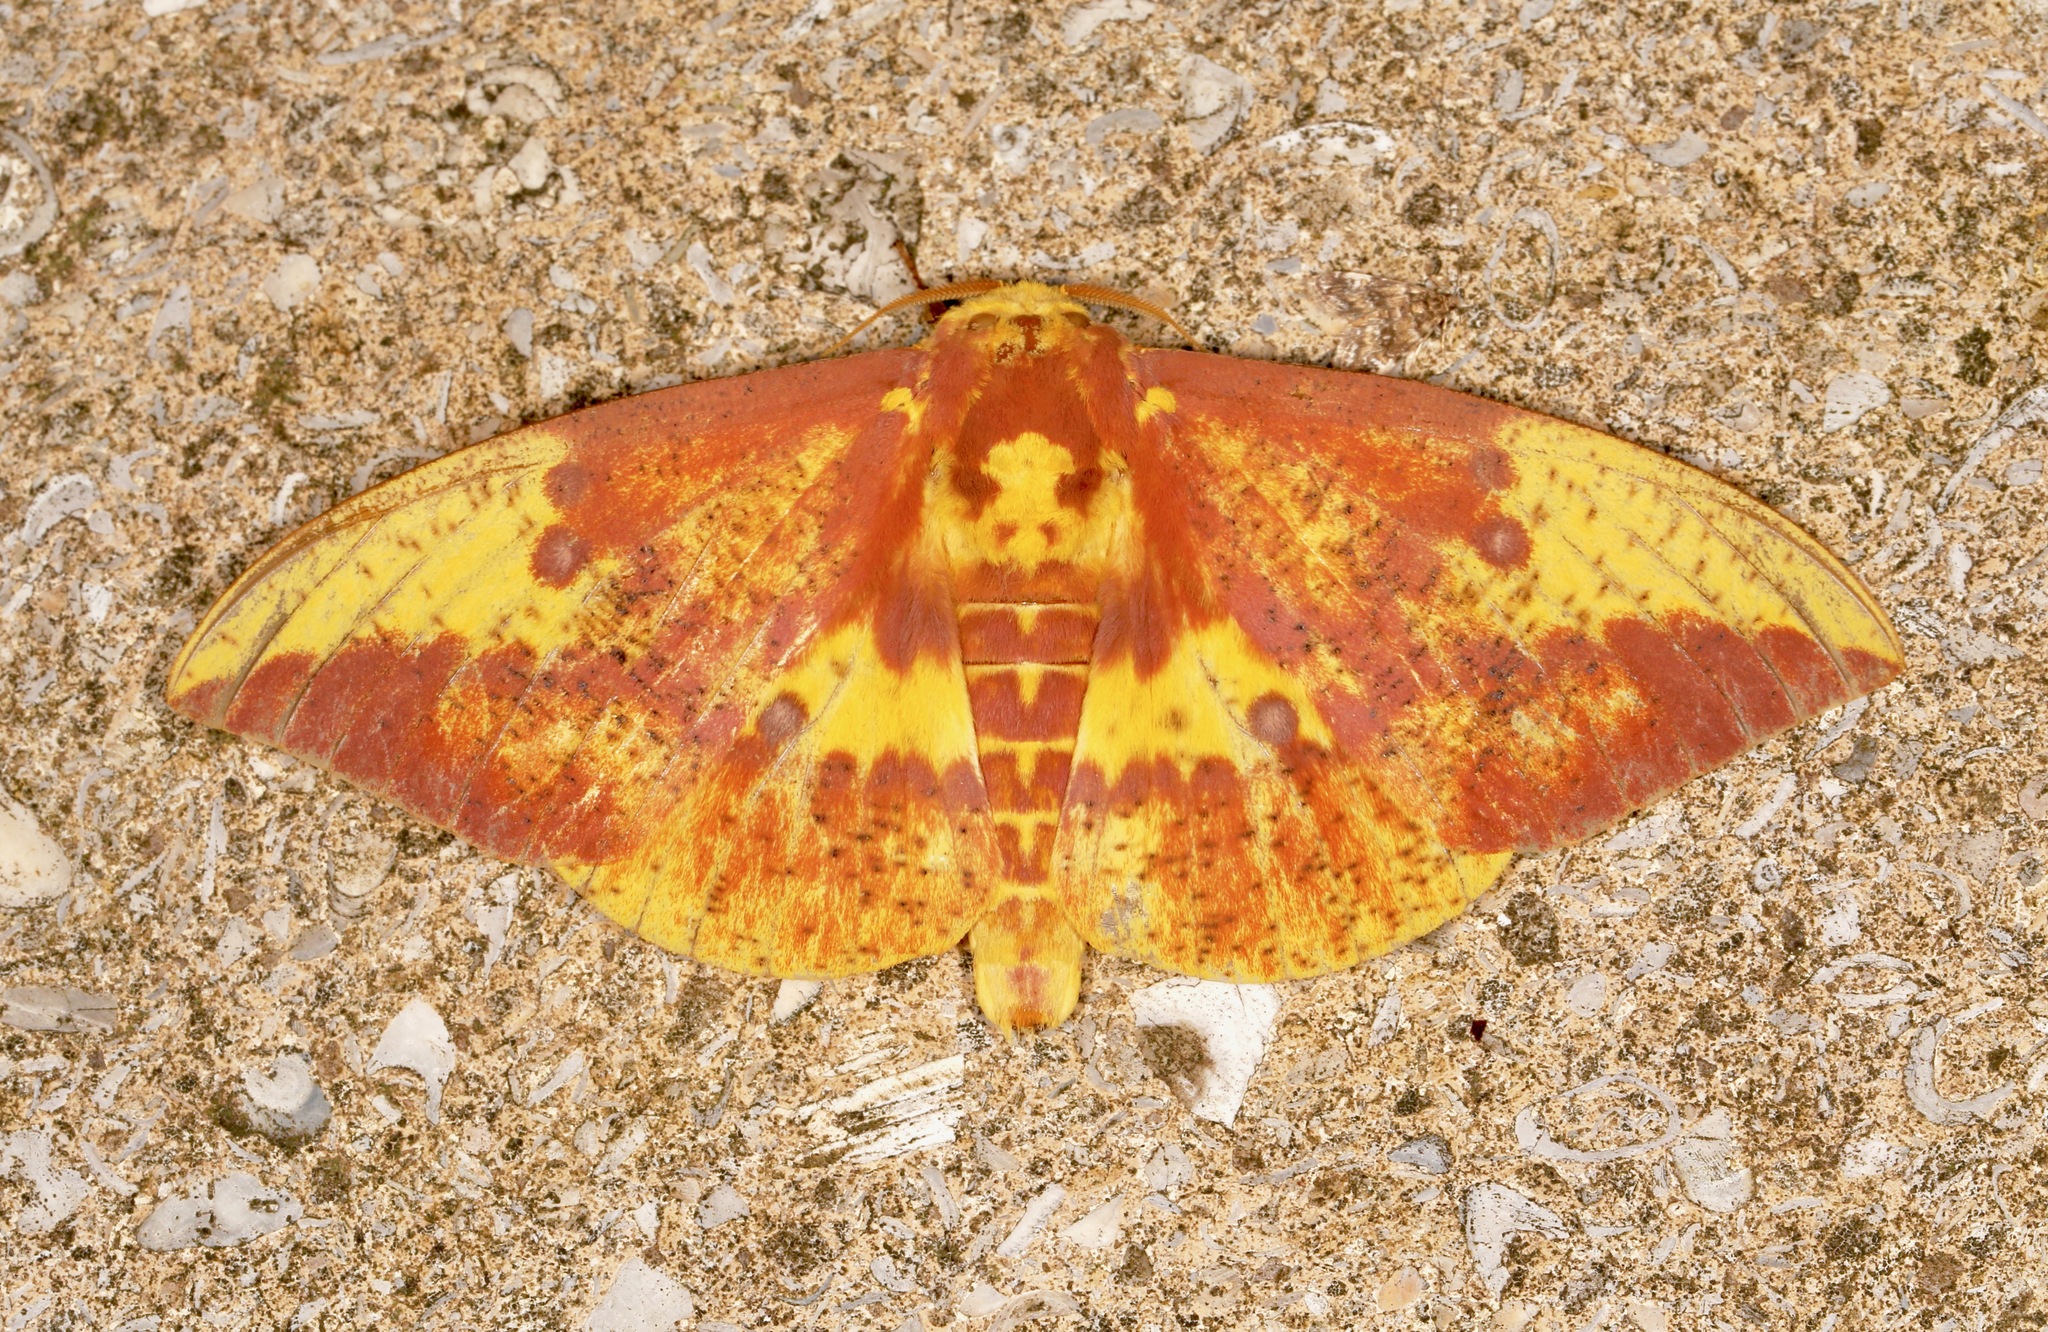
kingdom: Animalia
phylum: Arthropoda
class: Insecta
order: Lepidoptera
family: Saturniidae
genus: Eacles
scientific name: Eacles imperialis
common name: Imperial moth
